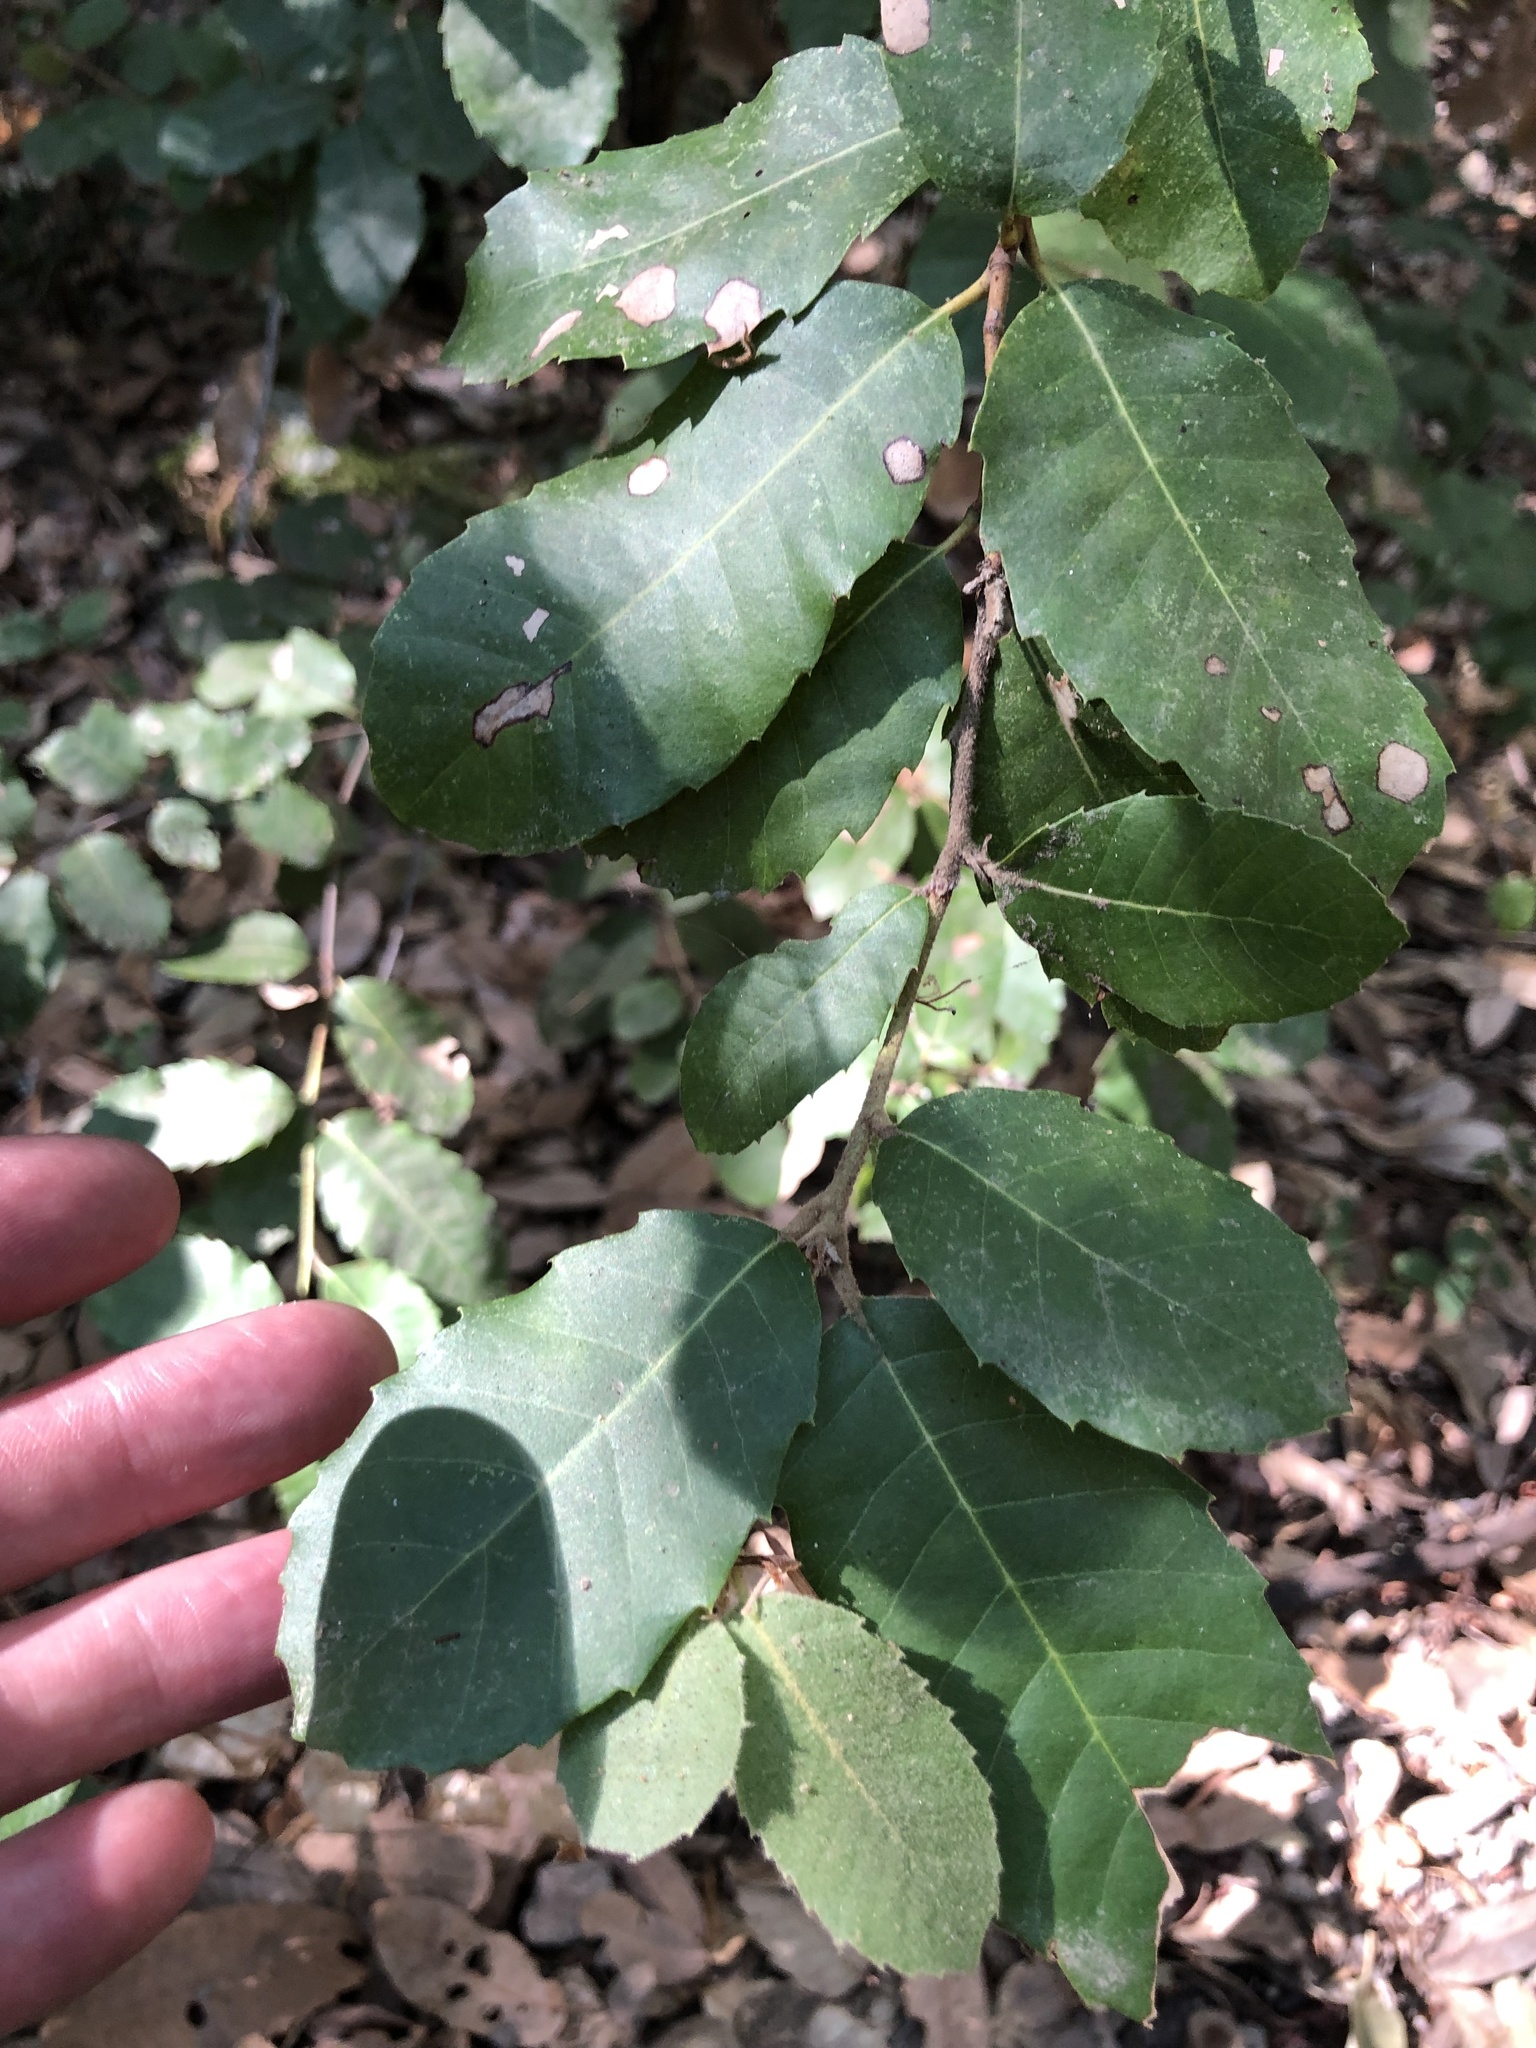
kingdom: Plantae
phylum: Tracheophyta
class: Magnoliopsida
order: Fagales
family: Fagaceae
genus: Notholithocarpus
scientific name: Notholithocarpus densiflorus
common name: Tan bark oak
